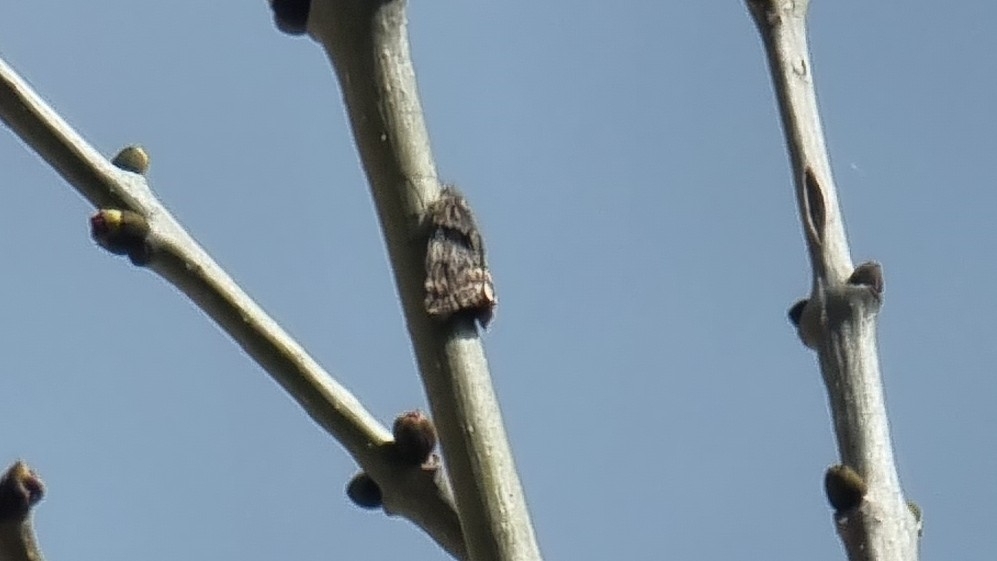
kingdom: Animalia
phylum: Arthropoda
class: Insecta
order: Lepidoptera
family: Geometridae
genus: Archiearis
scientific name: Archiearis notha
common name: Light orange underwing
